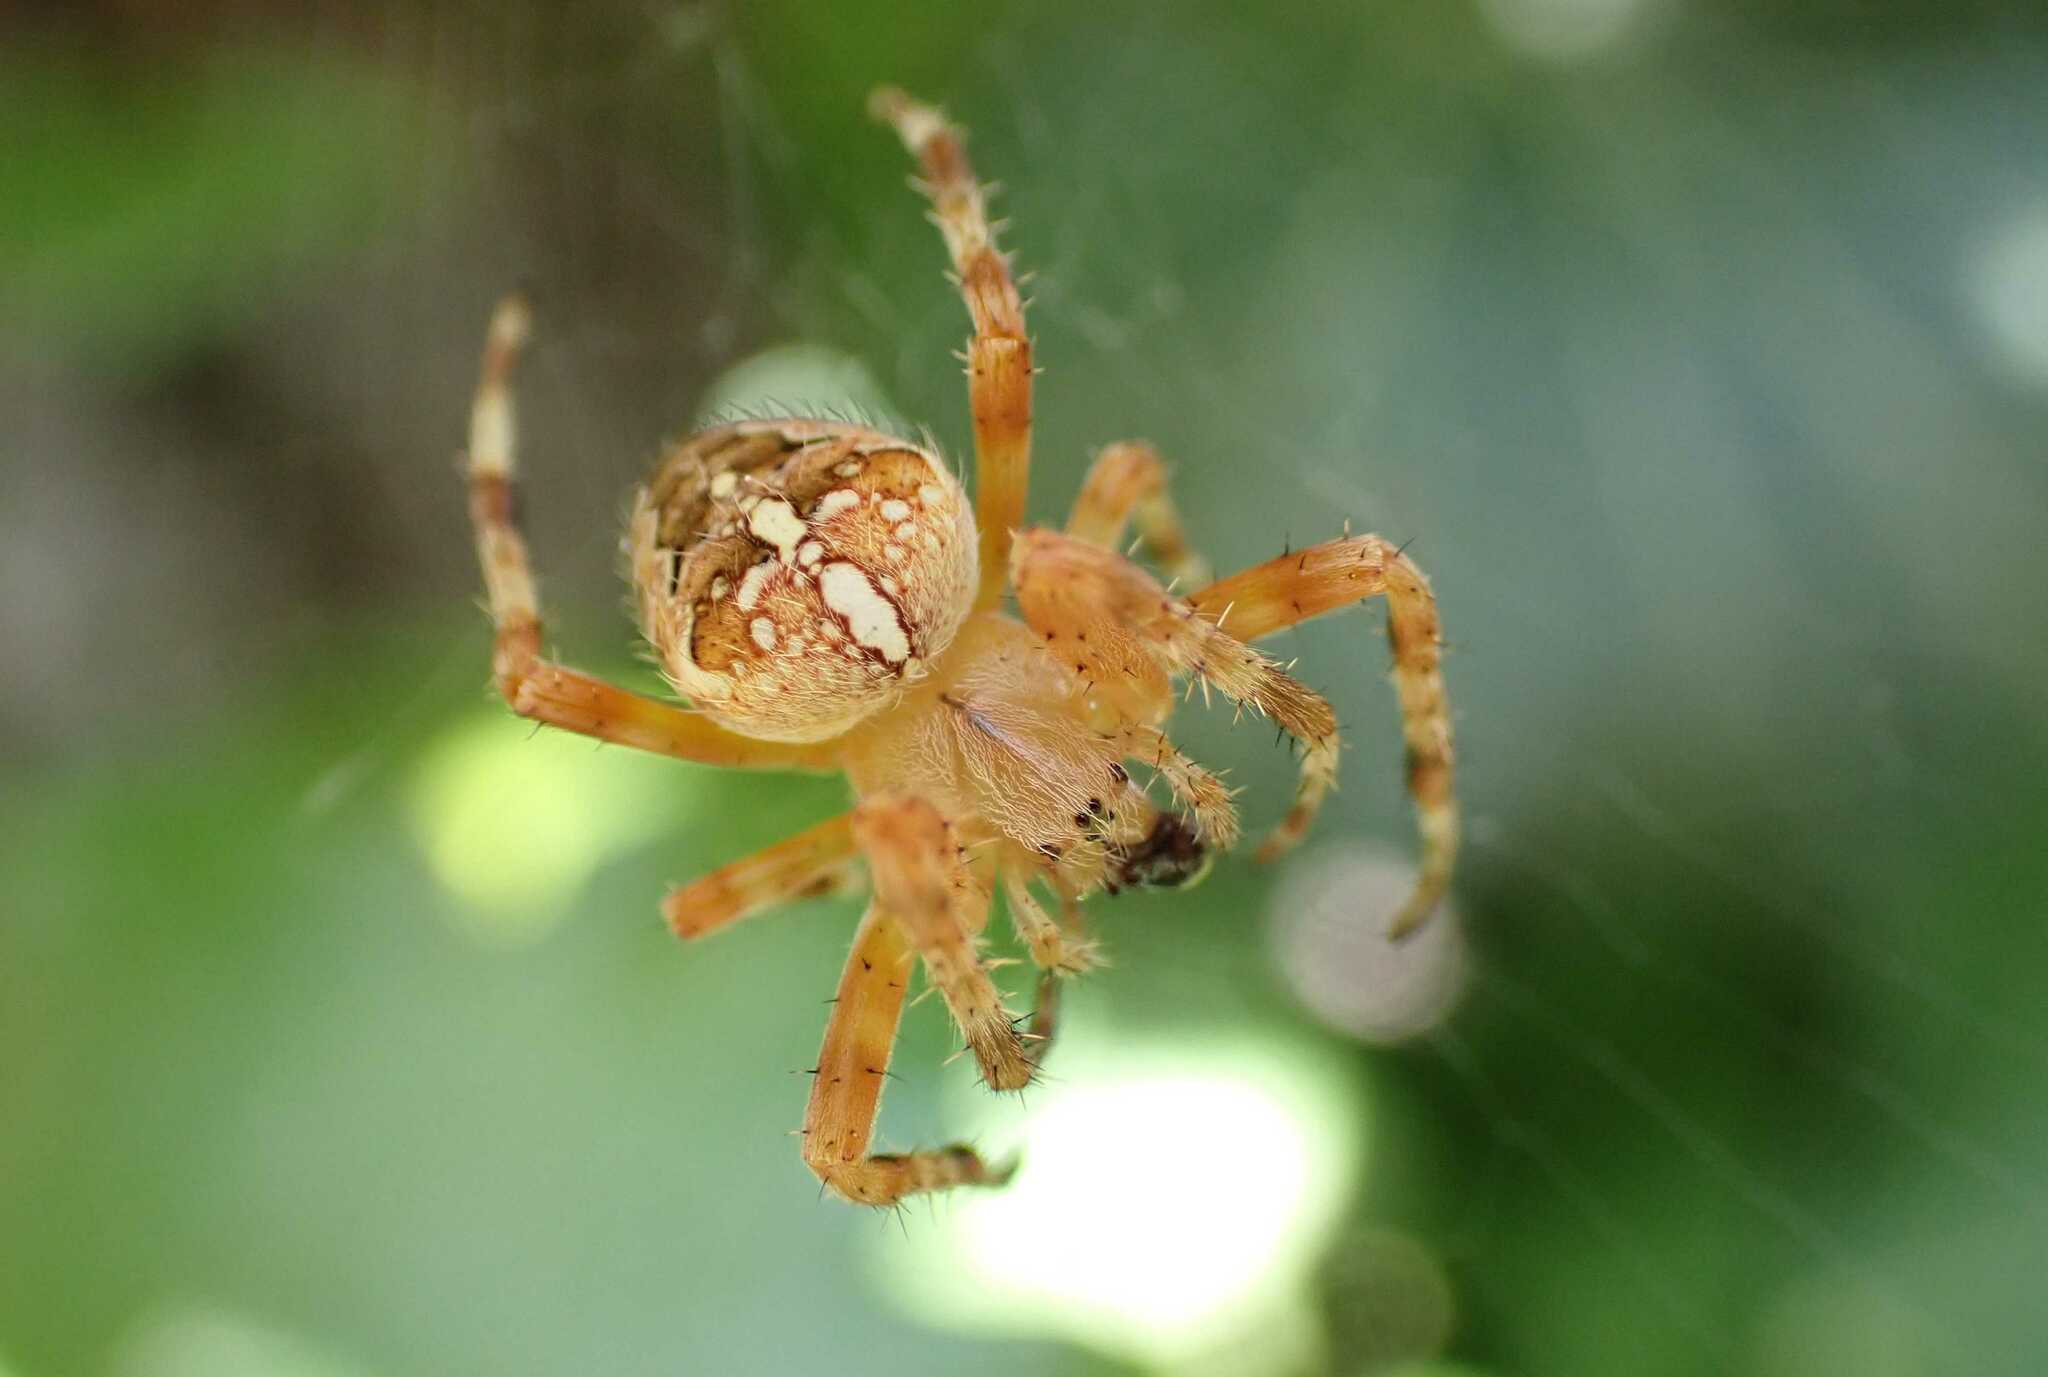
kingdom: Animalia
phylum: Arthropoda
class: Arachnida
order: Araneae
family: Araneidae
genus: Araneus
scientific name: Araneus diadematus
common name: Cross orbweaver
